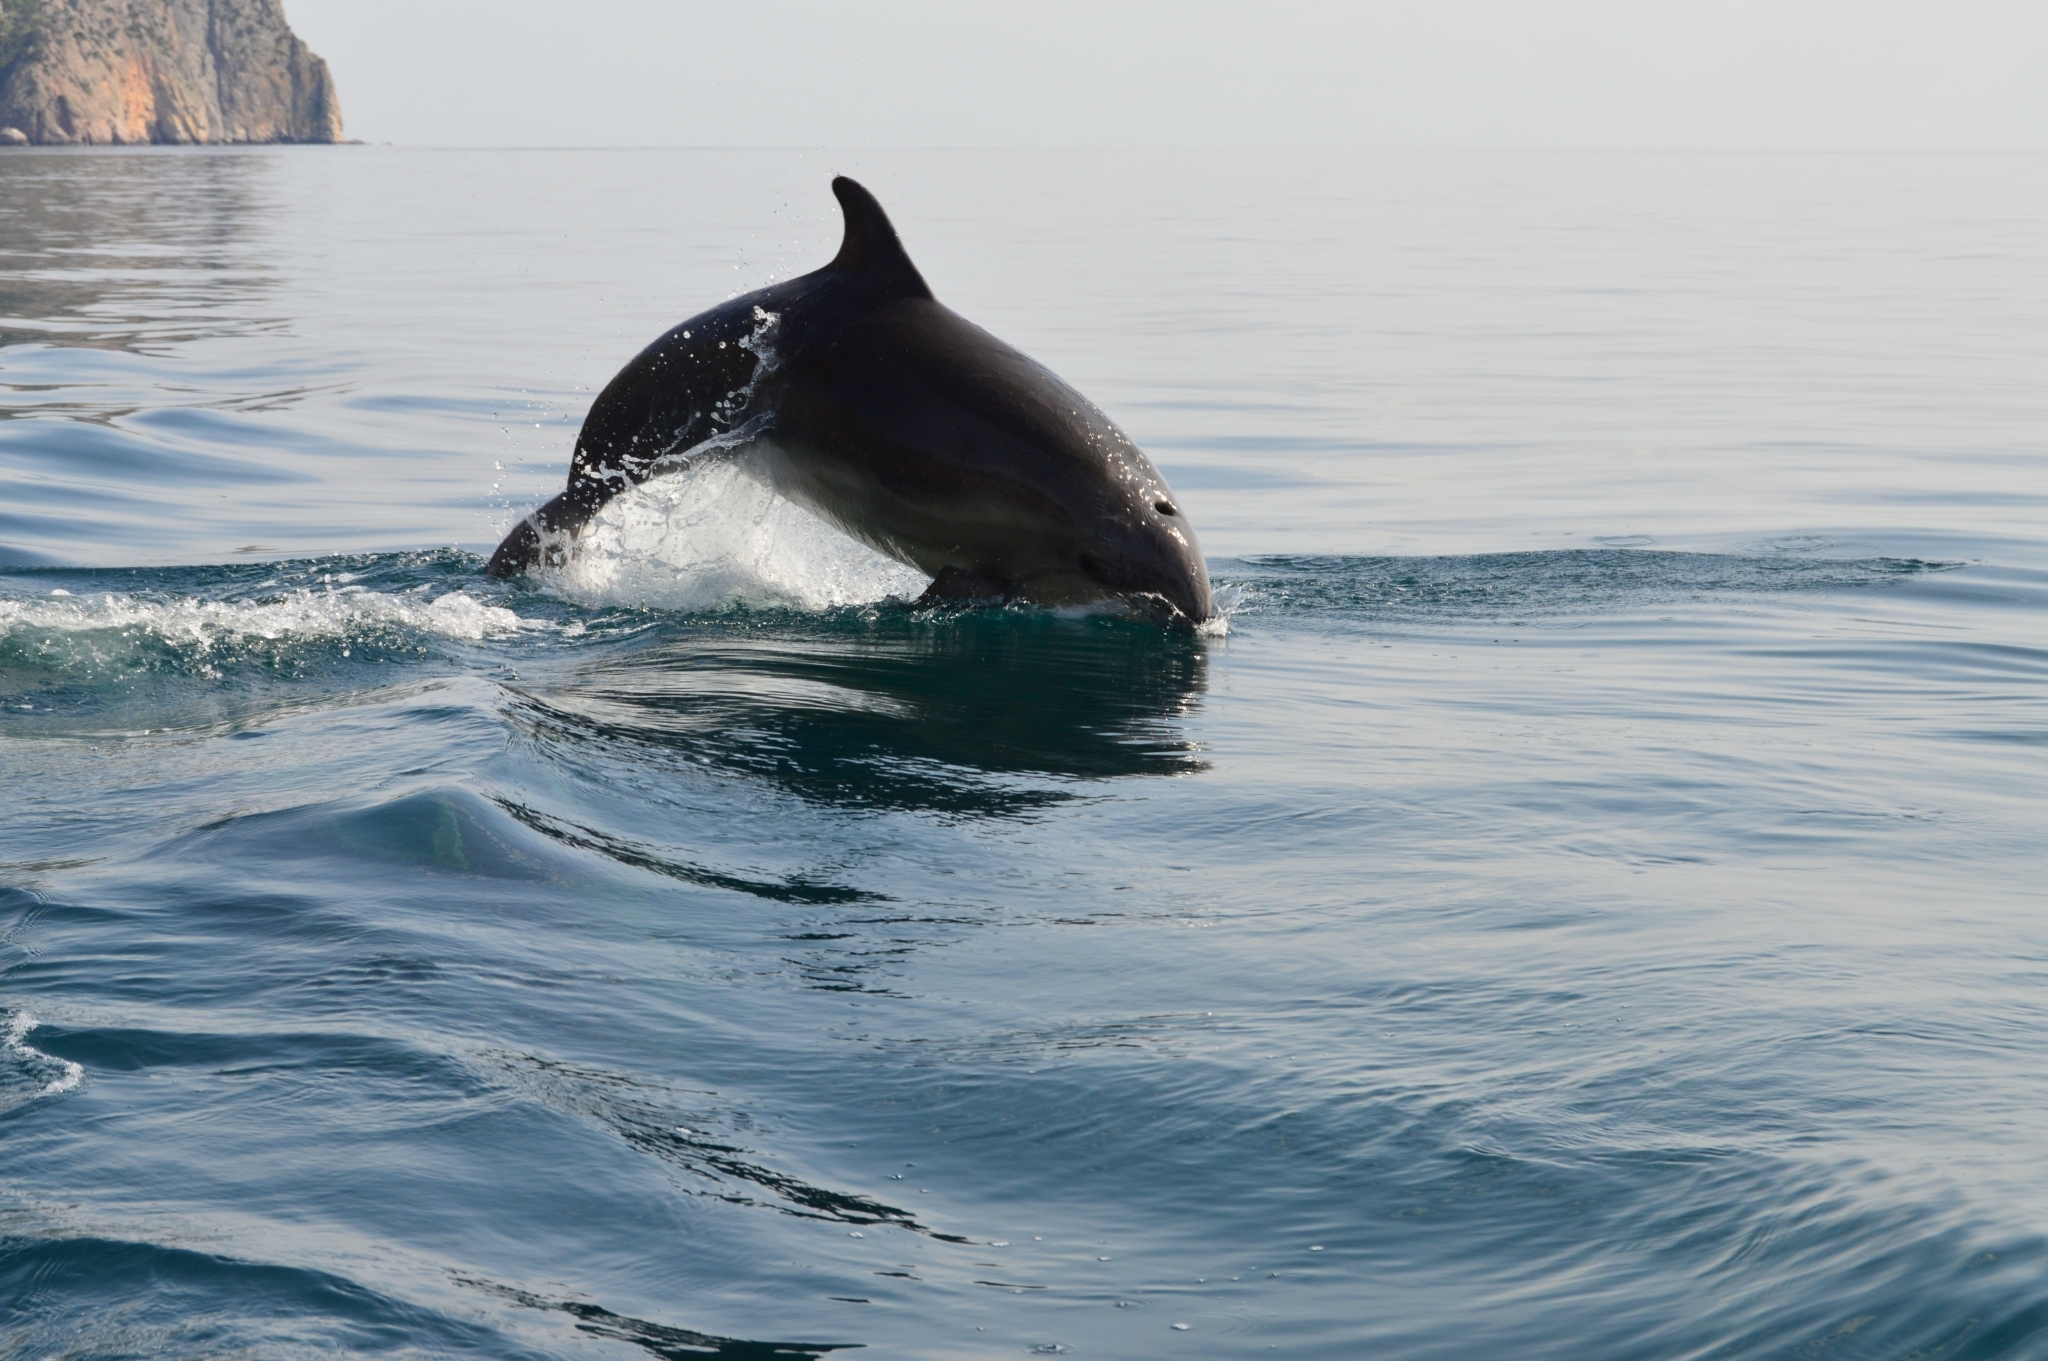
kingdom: Animalia
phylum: Chordata
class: Mammalia
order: Cetacea
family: Delphinidae
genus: Tursiops
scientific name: Tursiops truncatus
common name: Bottlenose dolphin
